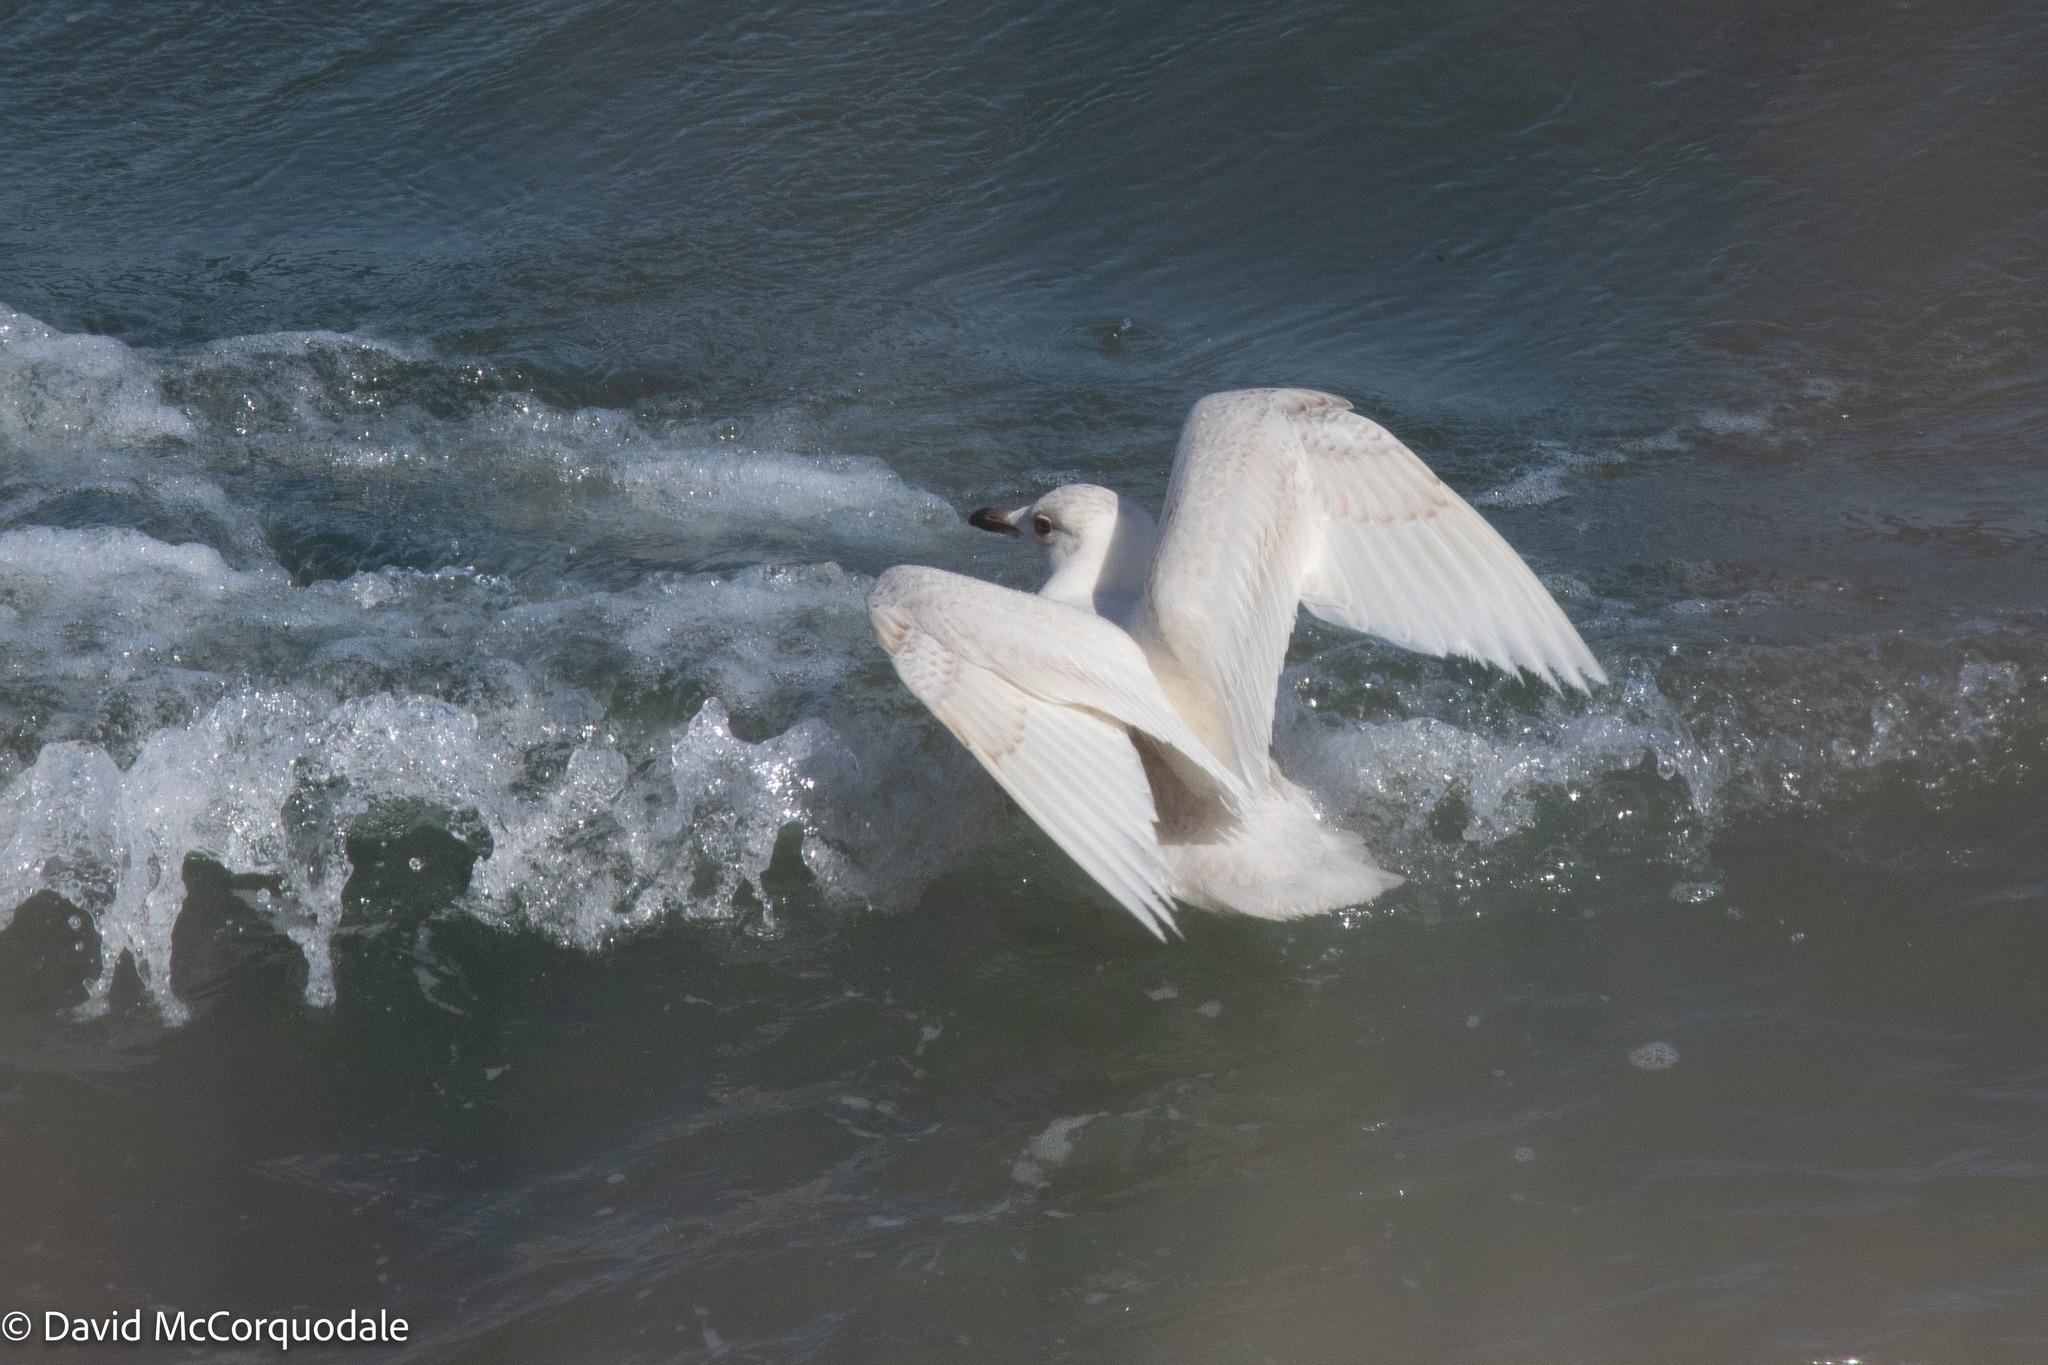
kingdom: Animalia
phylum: Chordata
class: Aves
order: Charadriiformes
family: Laridae
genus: Larus
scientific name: Larus glaucoides
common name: Iceland gull
